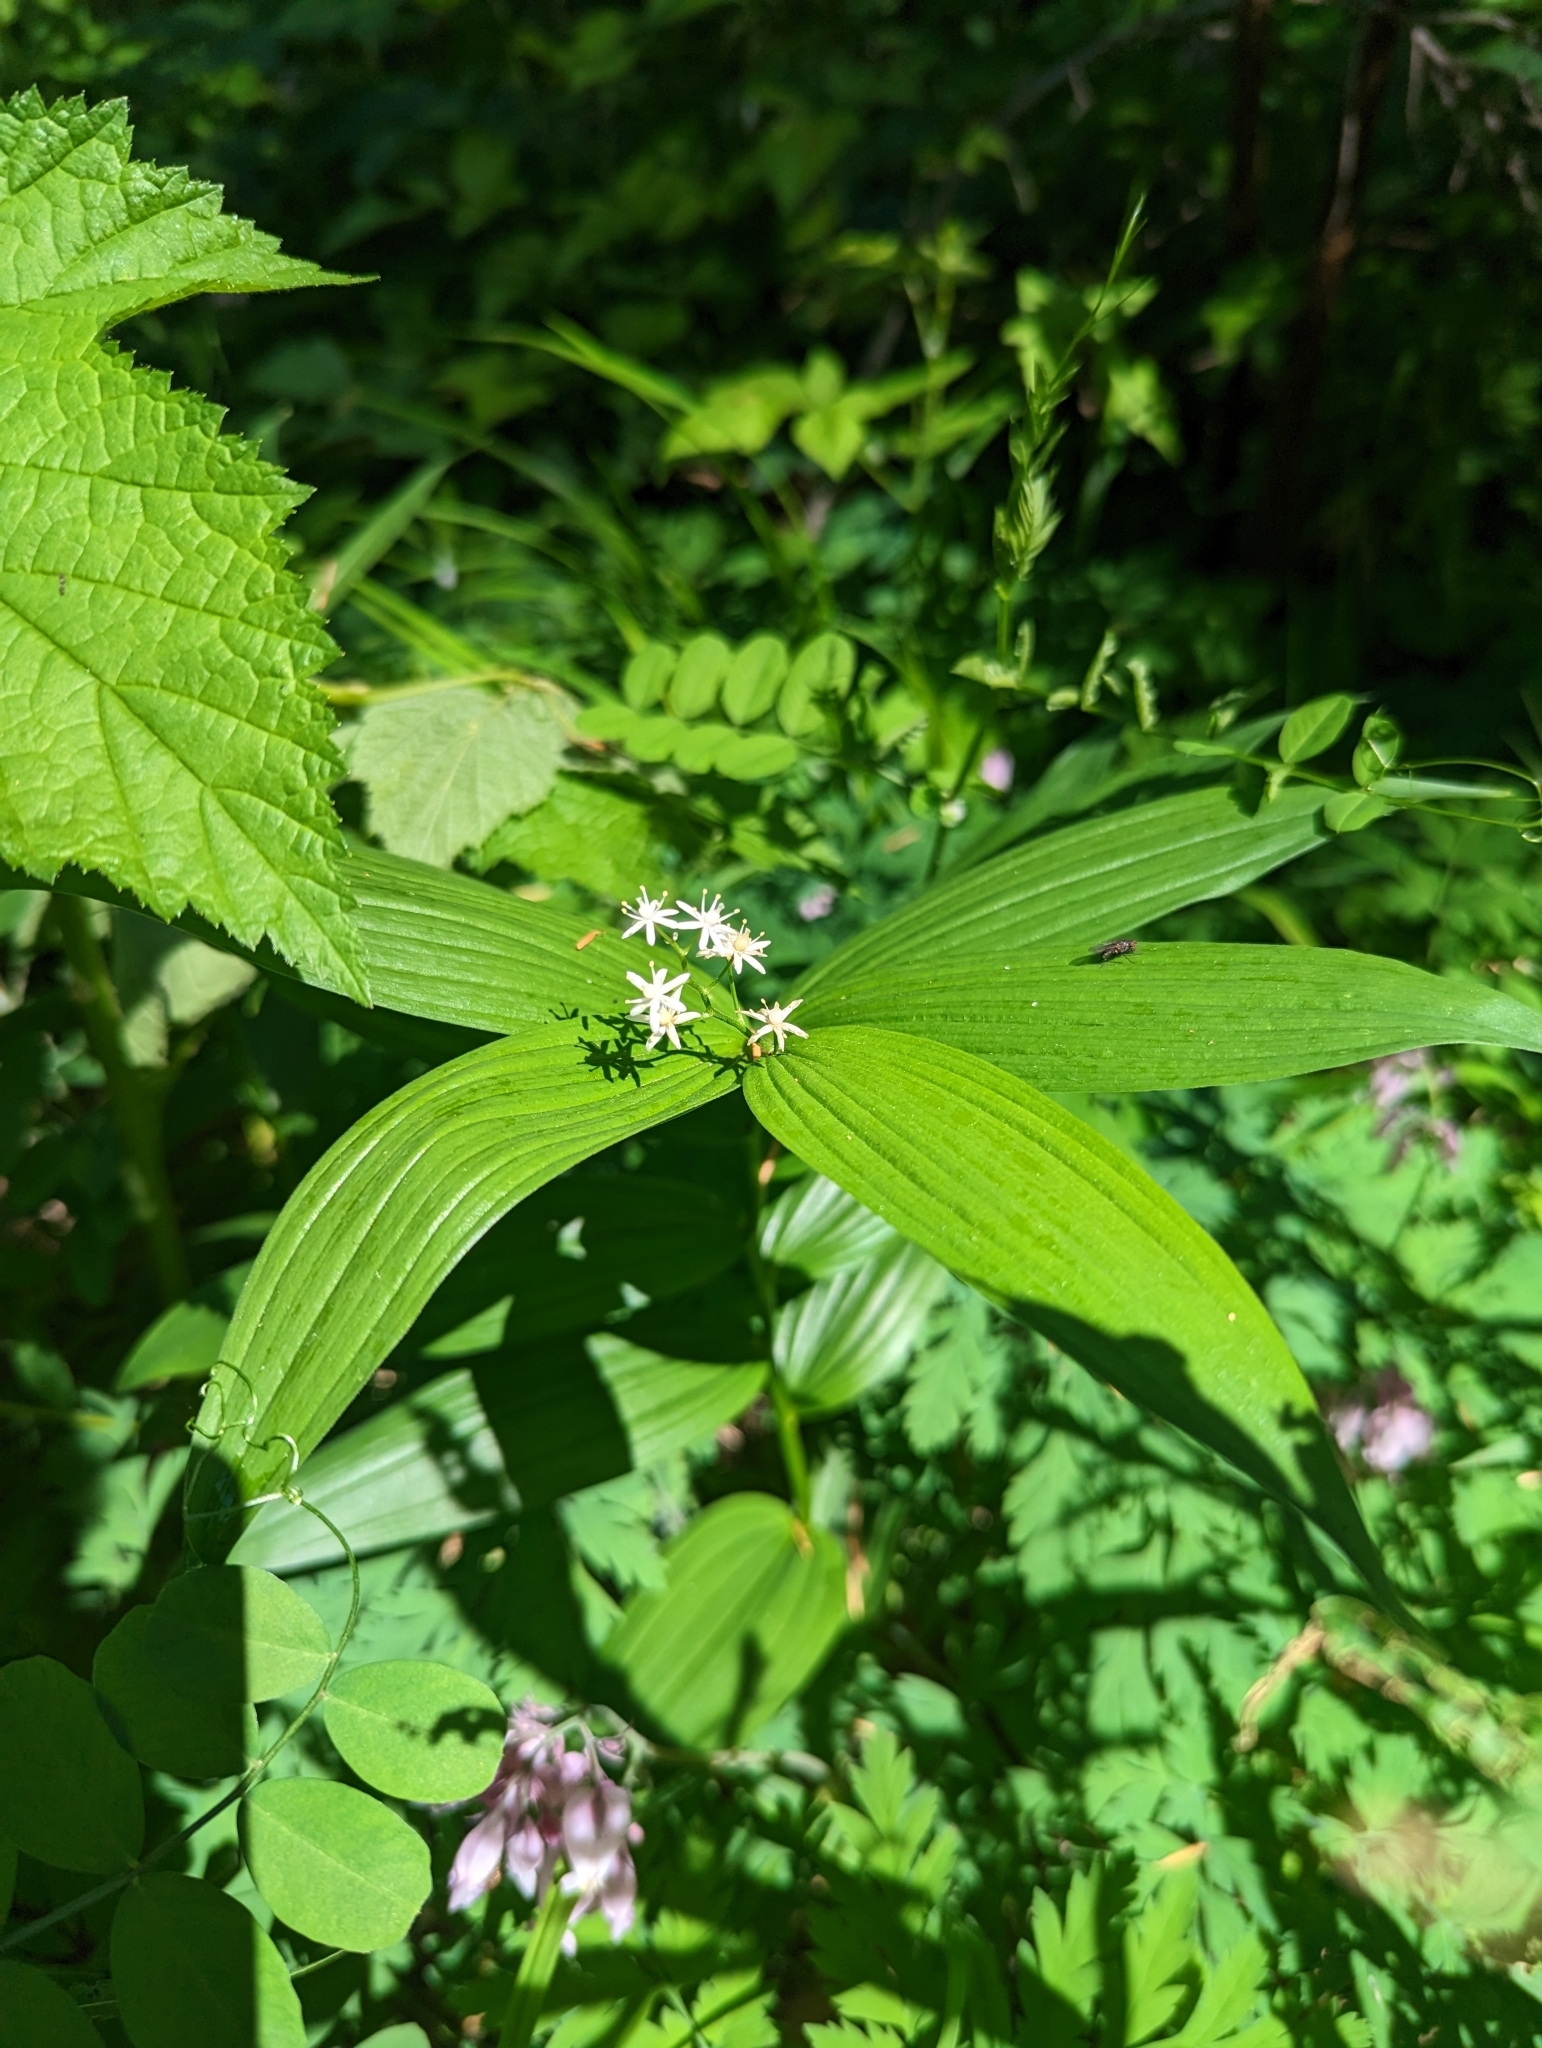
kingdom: Plantae
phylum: Tracheophyta
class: Liliopsida
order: Asparagales
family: Asparagaceae
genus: Maianthemum
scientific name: Maianthemum stellatum
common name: Little false solomon's seal
